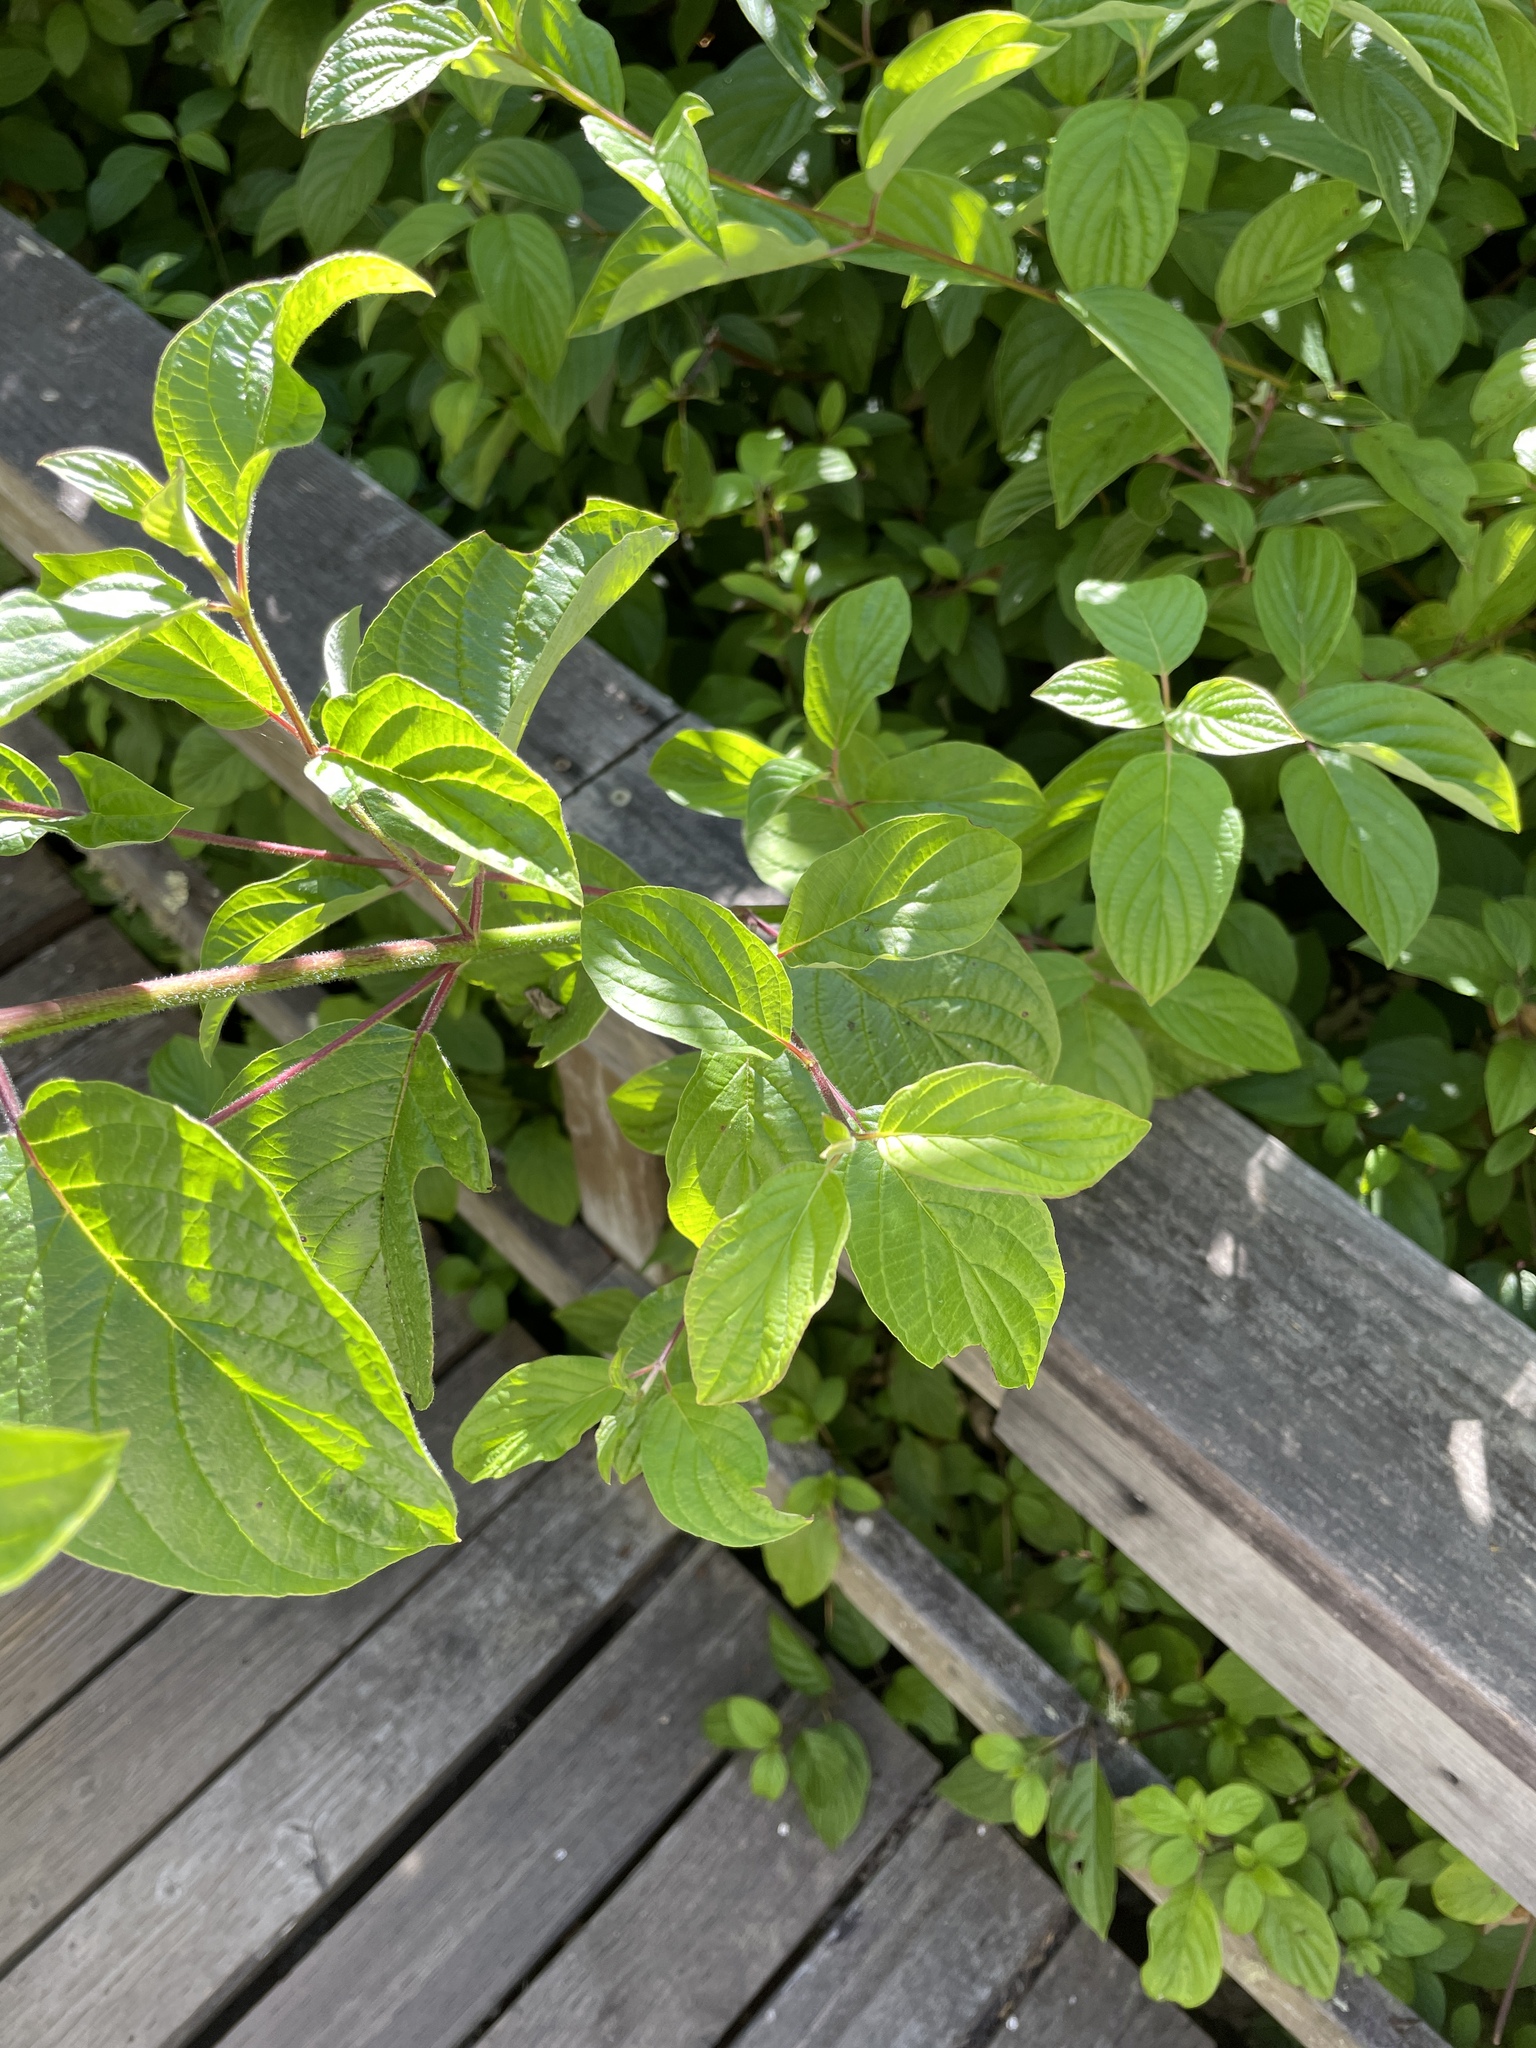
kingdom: Plantae
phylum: Tracheophyta
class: Magnoliopsida
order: Cornales
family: Cornaceae
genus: Cornus
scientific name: Cornus sericea
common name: Red-osier dogwood
